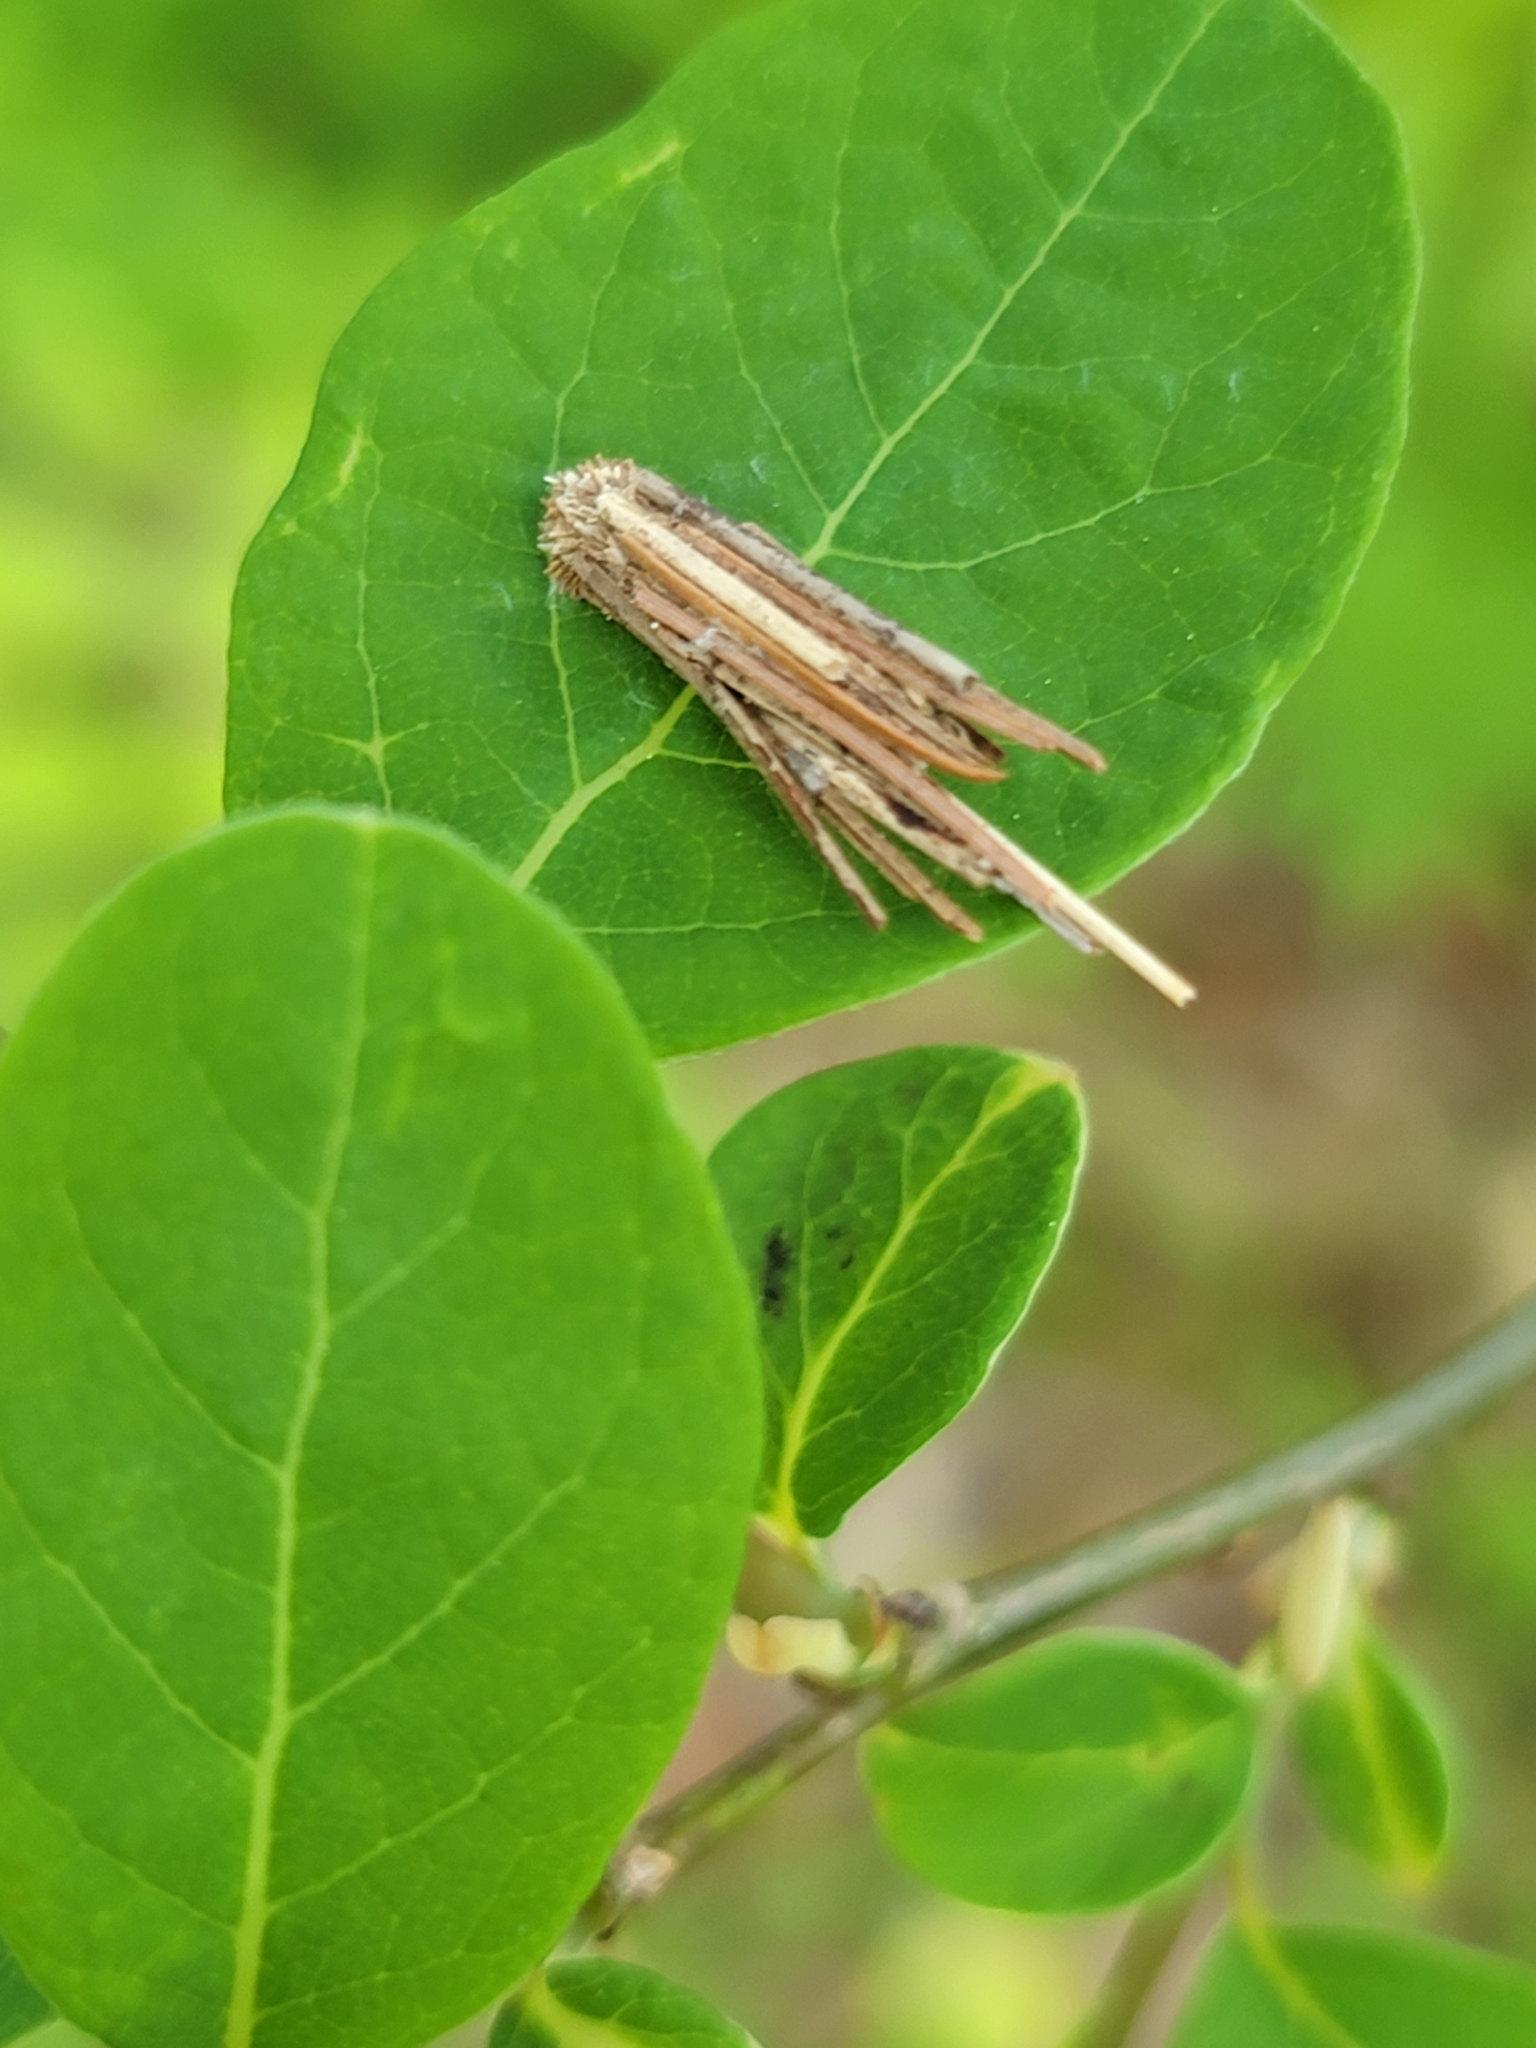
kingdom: Animalia
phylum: Arthropoda
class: Insecta
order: Lepidoptera
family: Psychidae
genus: Psyche
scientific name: Psyche casta
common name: Common sweep
